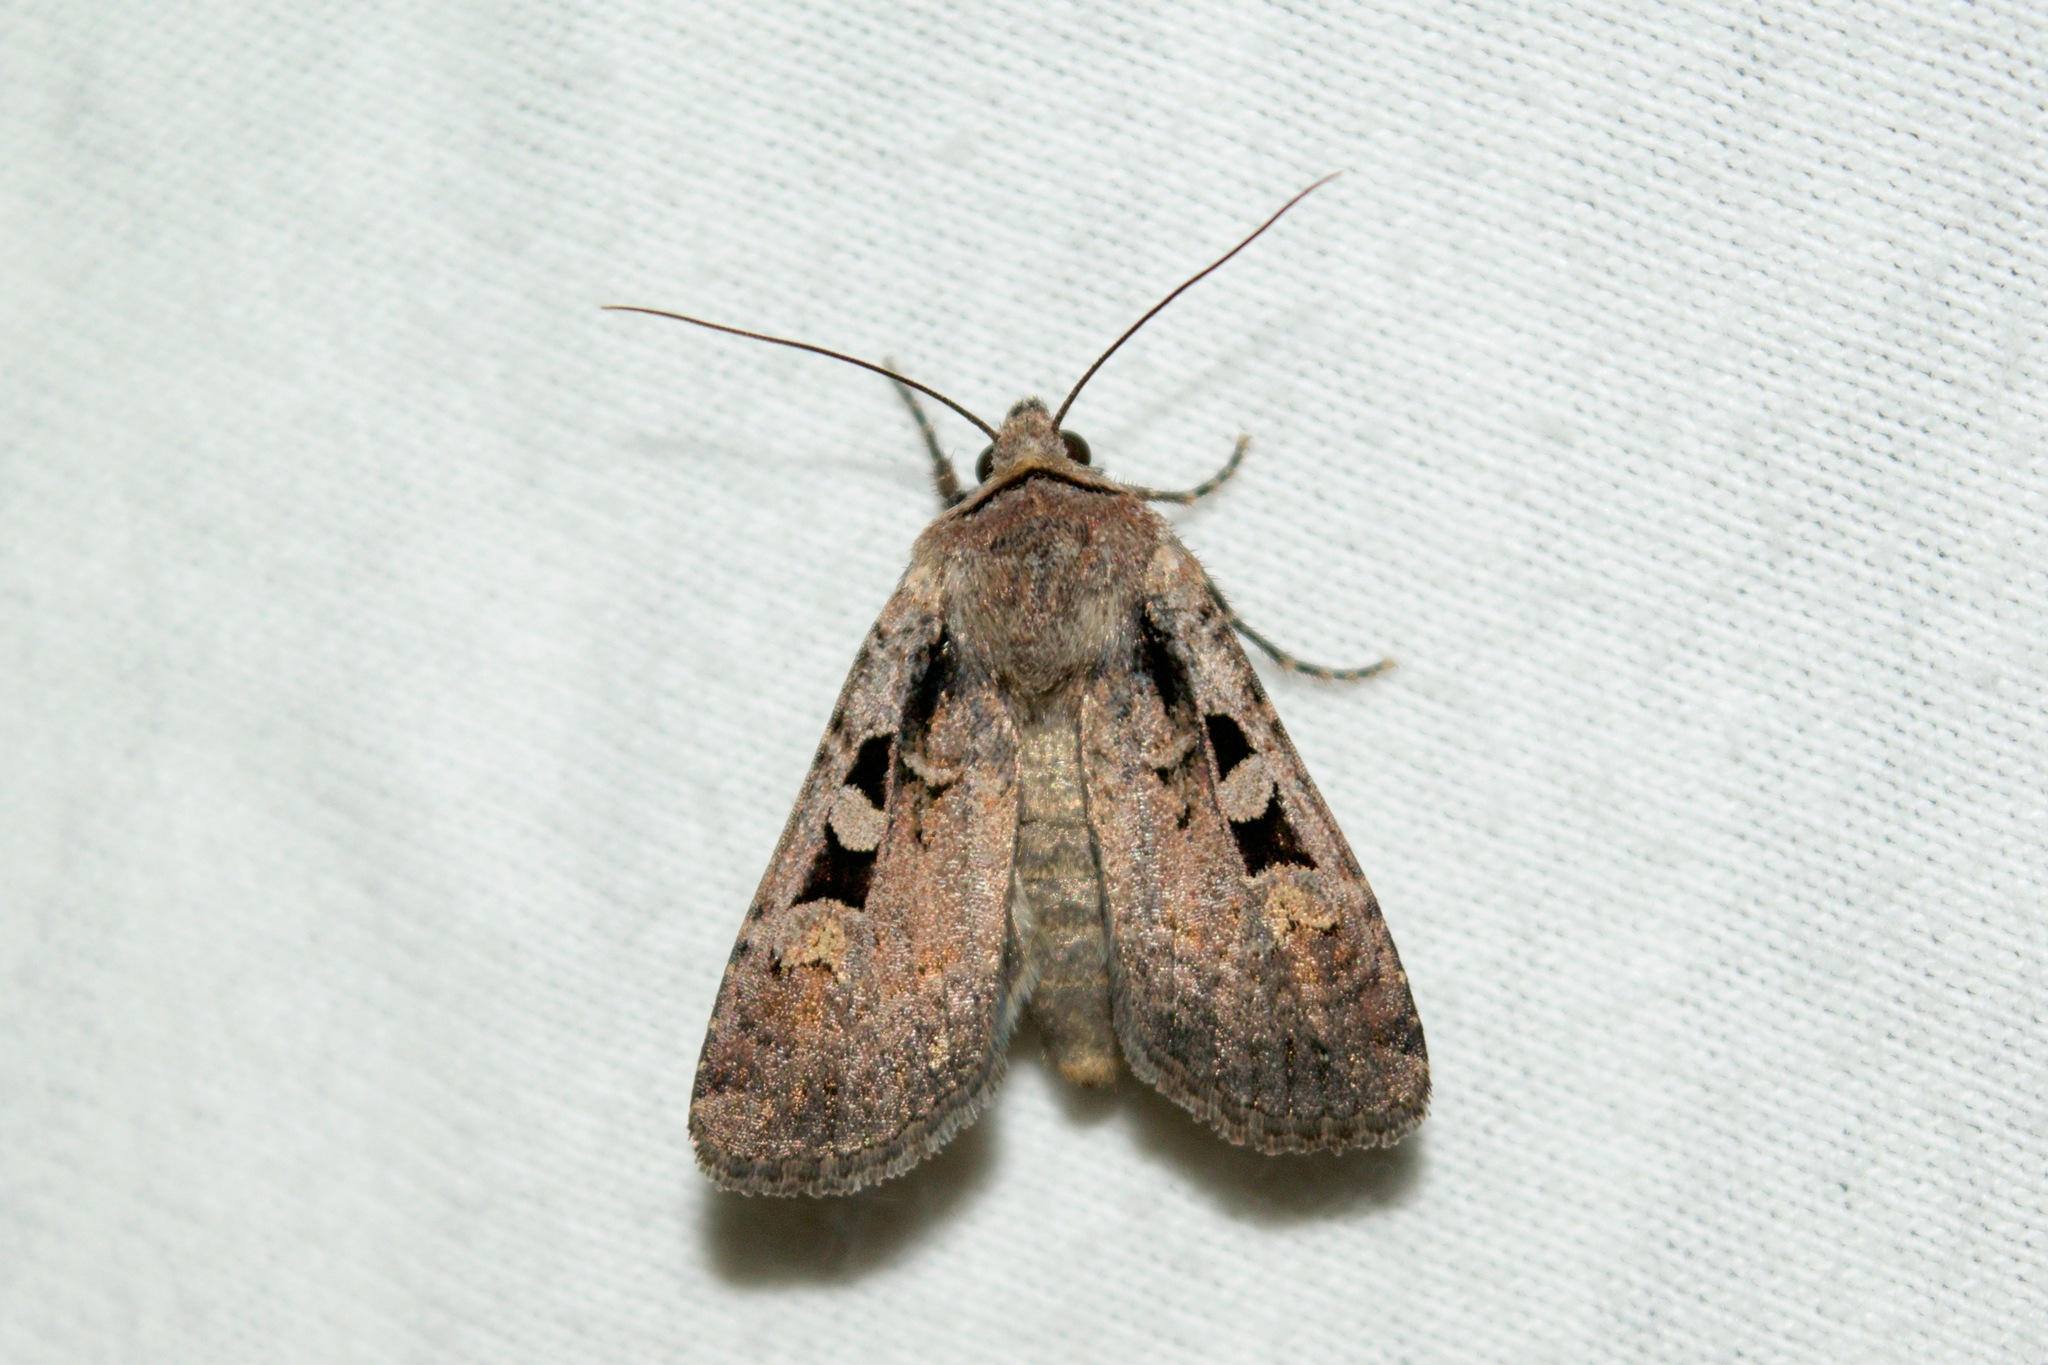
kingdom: Animalia
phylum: Arthropoda
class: Insecta
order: Lepidoptera
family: Noctuidae
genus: Euxoa
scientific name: Euxoa tessellata
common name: Striped cutworm
